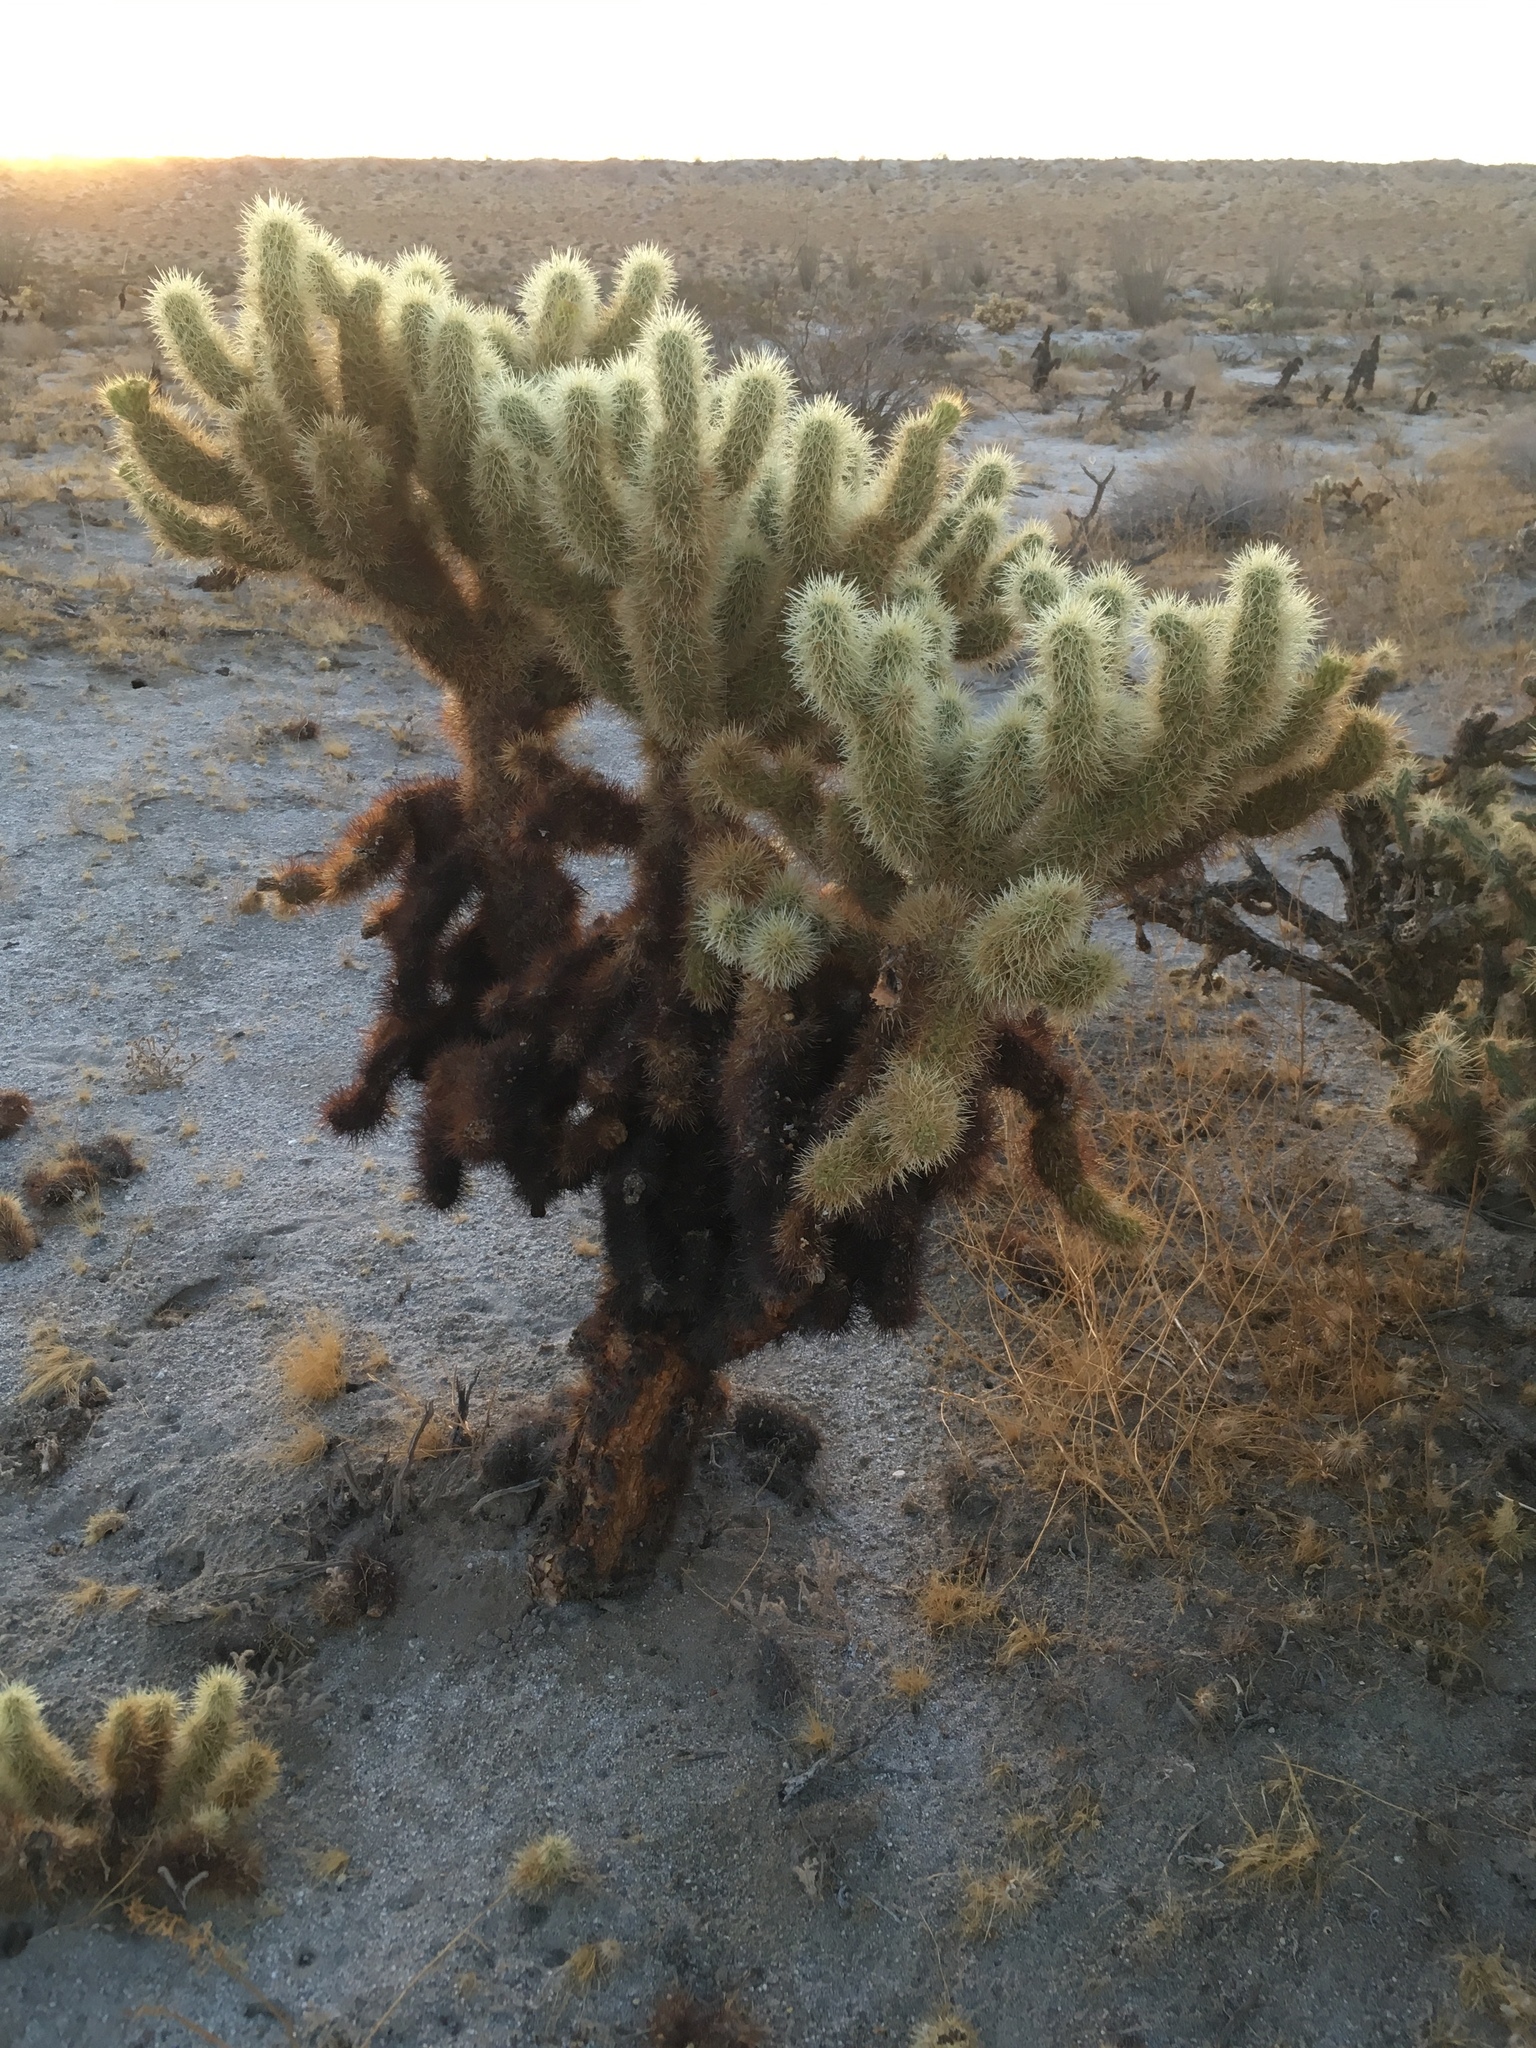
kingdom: Plantae
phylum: Tracheophyta
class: Magnoliopsida
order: Caryophyllales
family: Cactaceae
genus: Cylindropuntia
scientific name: Cylindropuntia fosbergii
